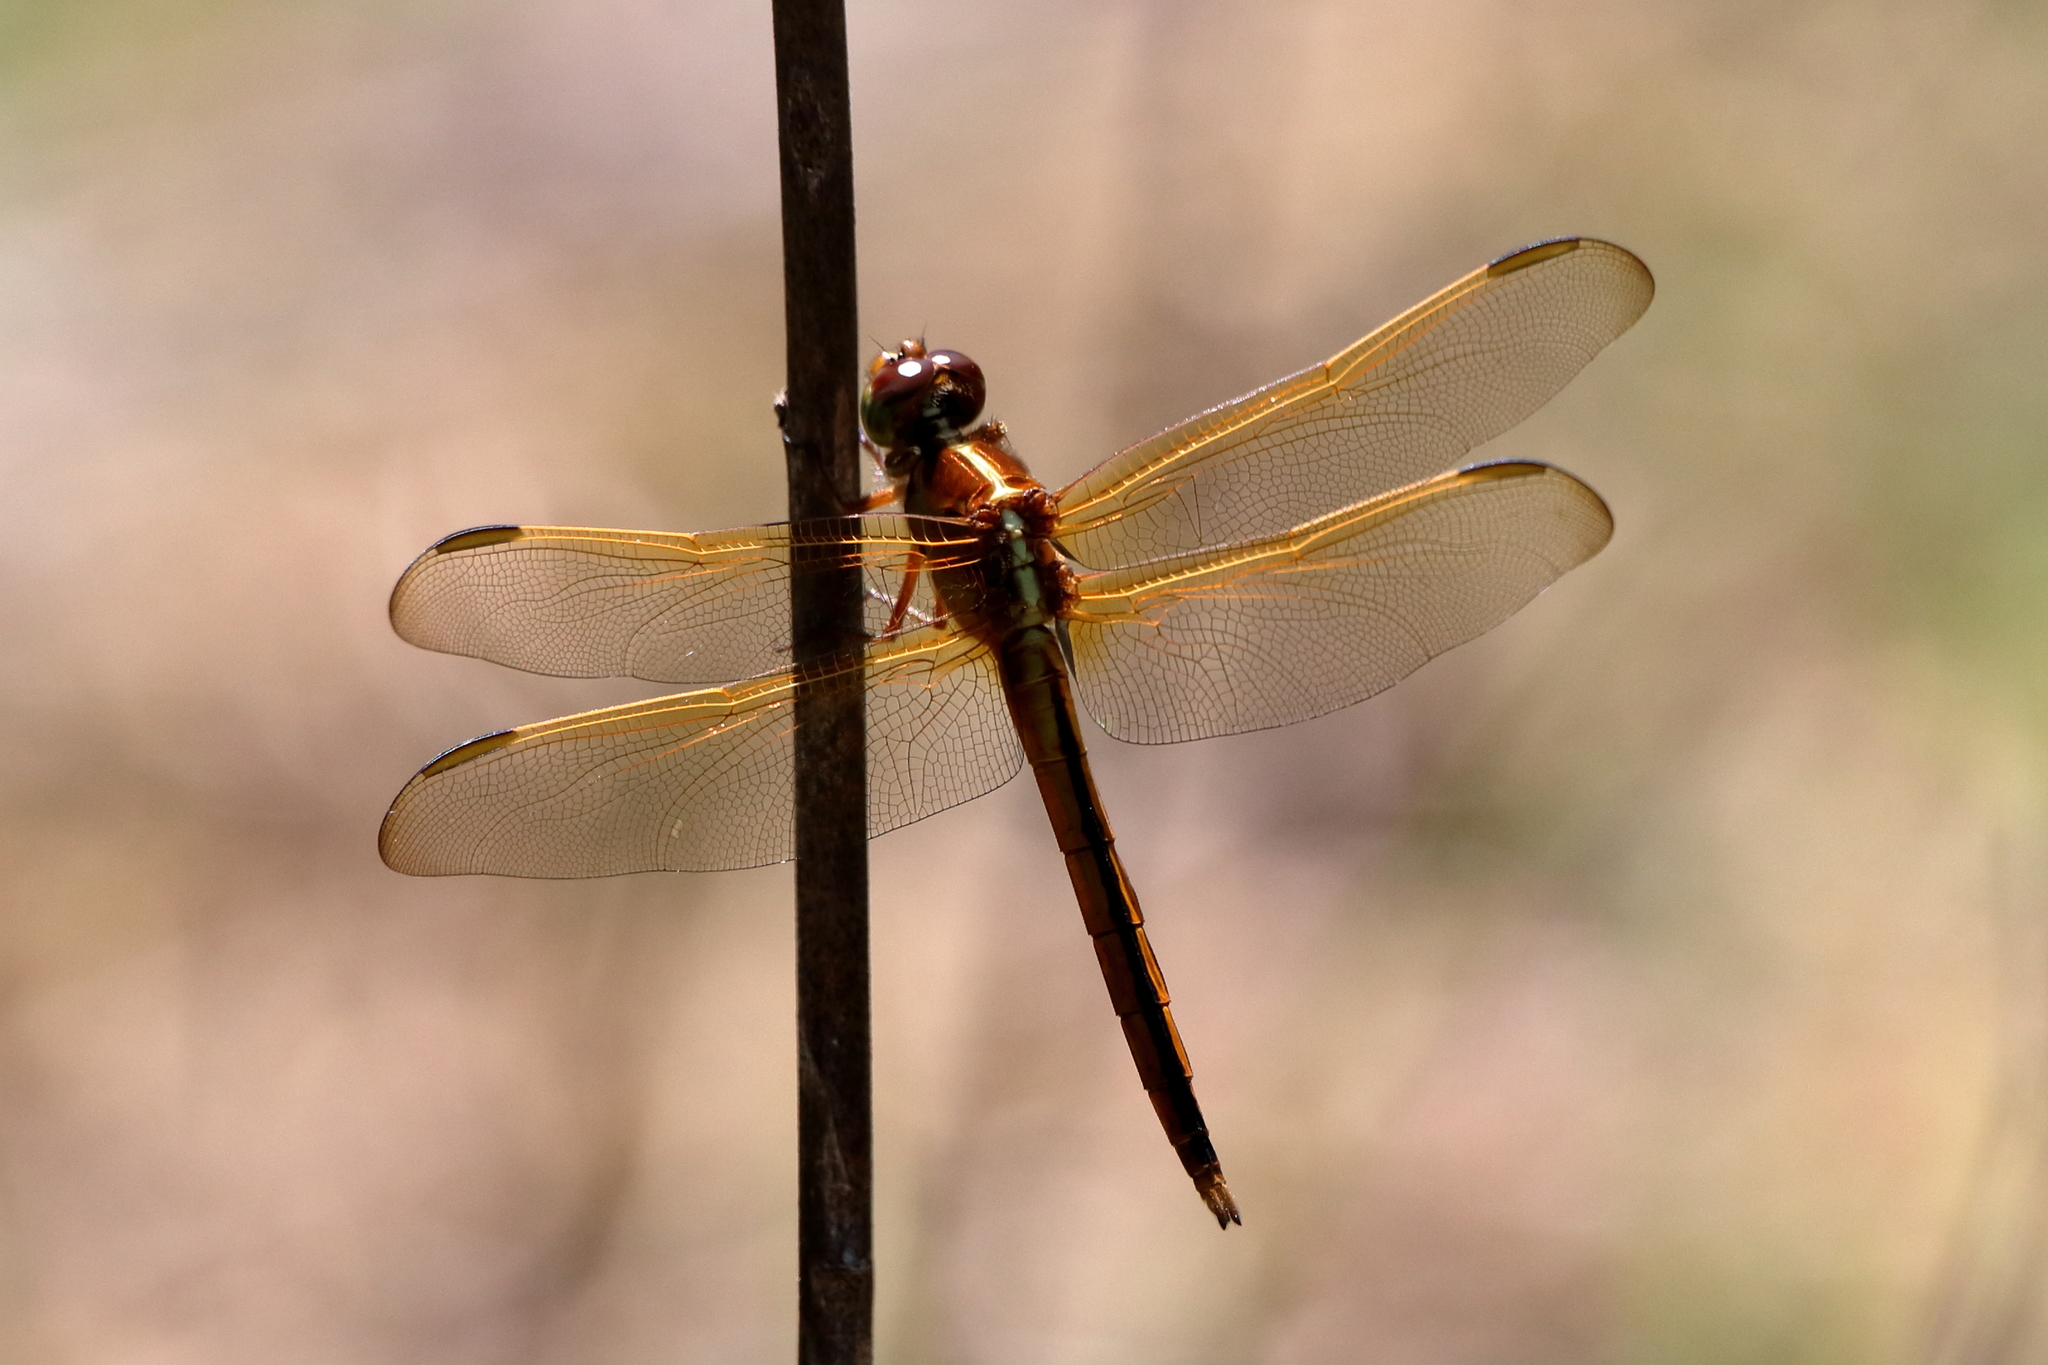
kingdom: Animalia
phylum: Arthropoda
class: Insecta
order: Odonata
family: Libellulidae
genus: Libellula
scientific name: Libellula needhami
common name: Needham's skimmer
